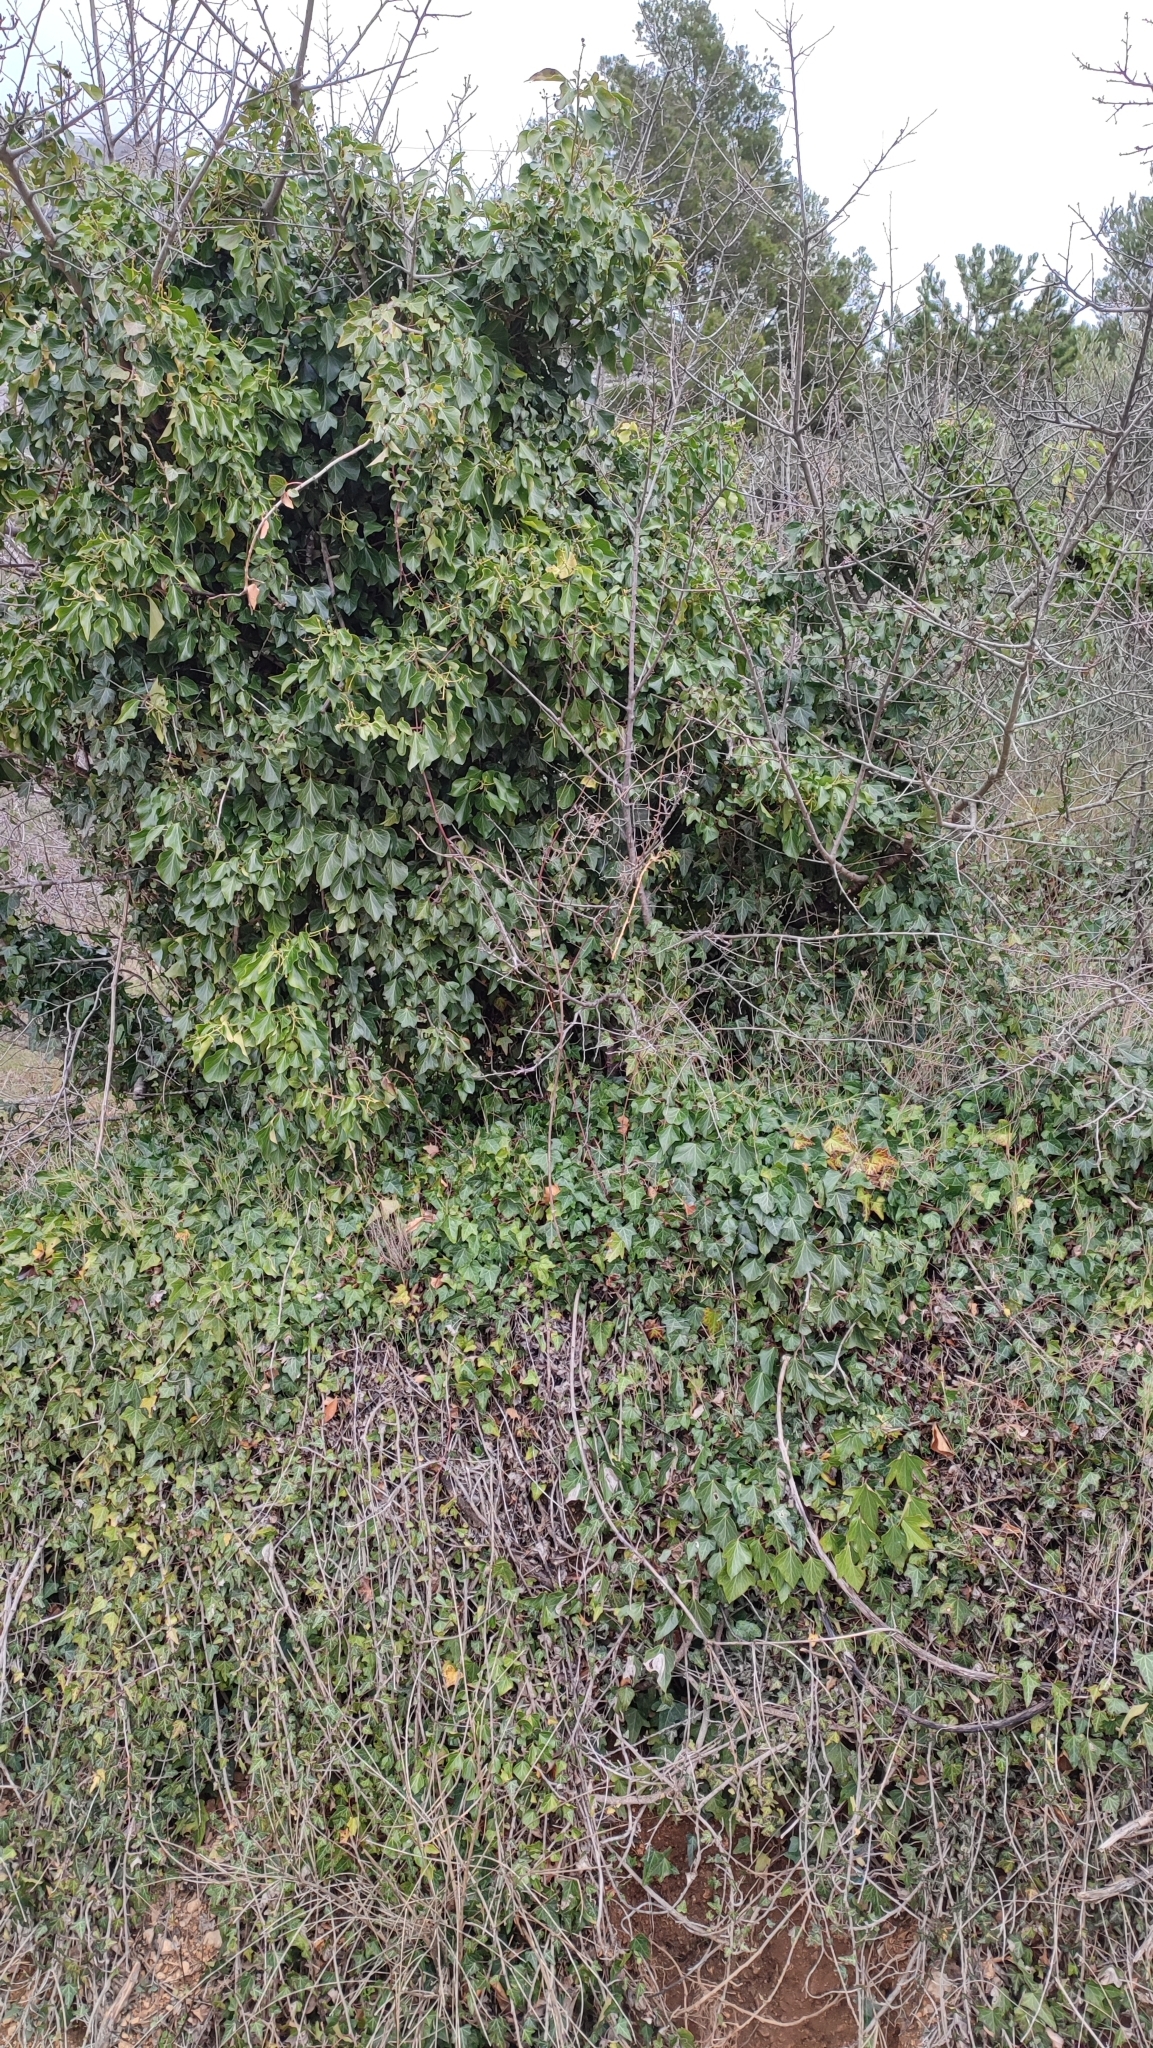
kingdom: Plantae
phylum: Tracheophyta
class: Magnoliopsida
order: Apiales
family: Araliaceae
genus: Hedera
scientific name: Hedera helix
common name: Ivy
